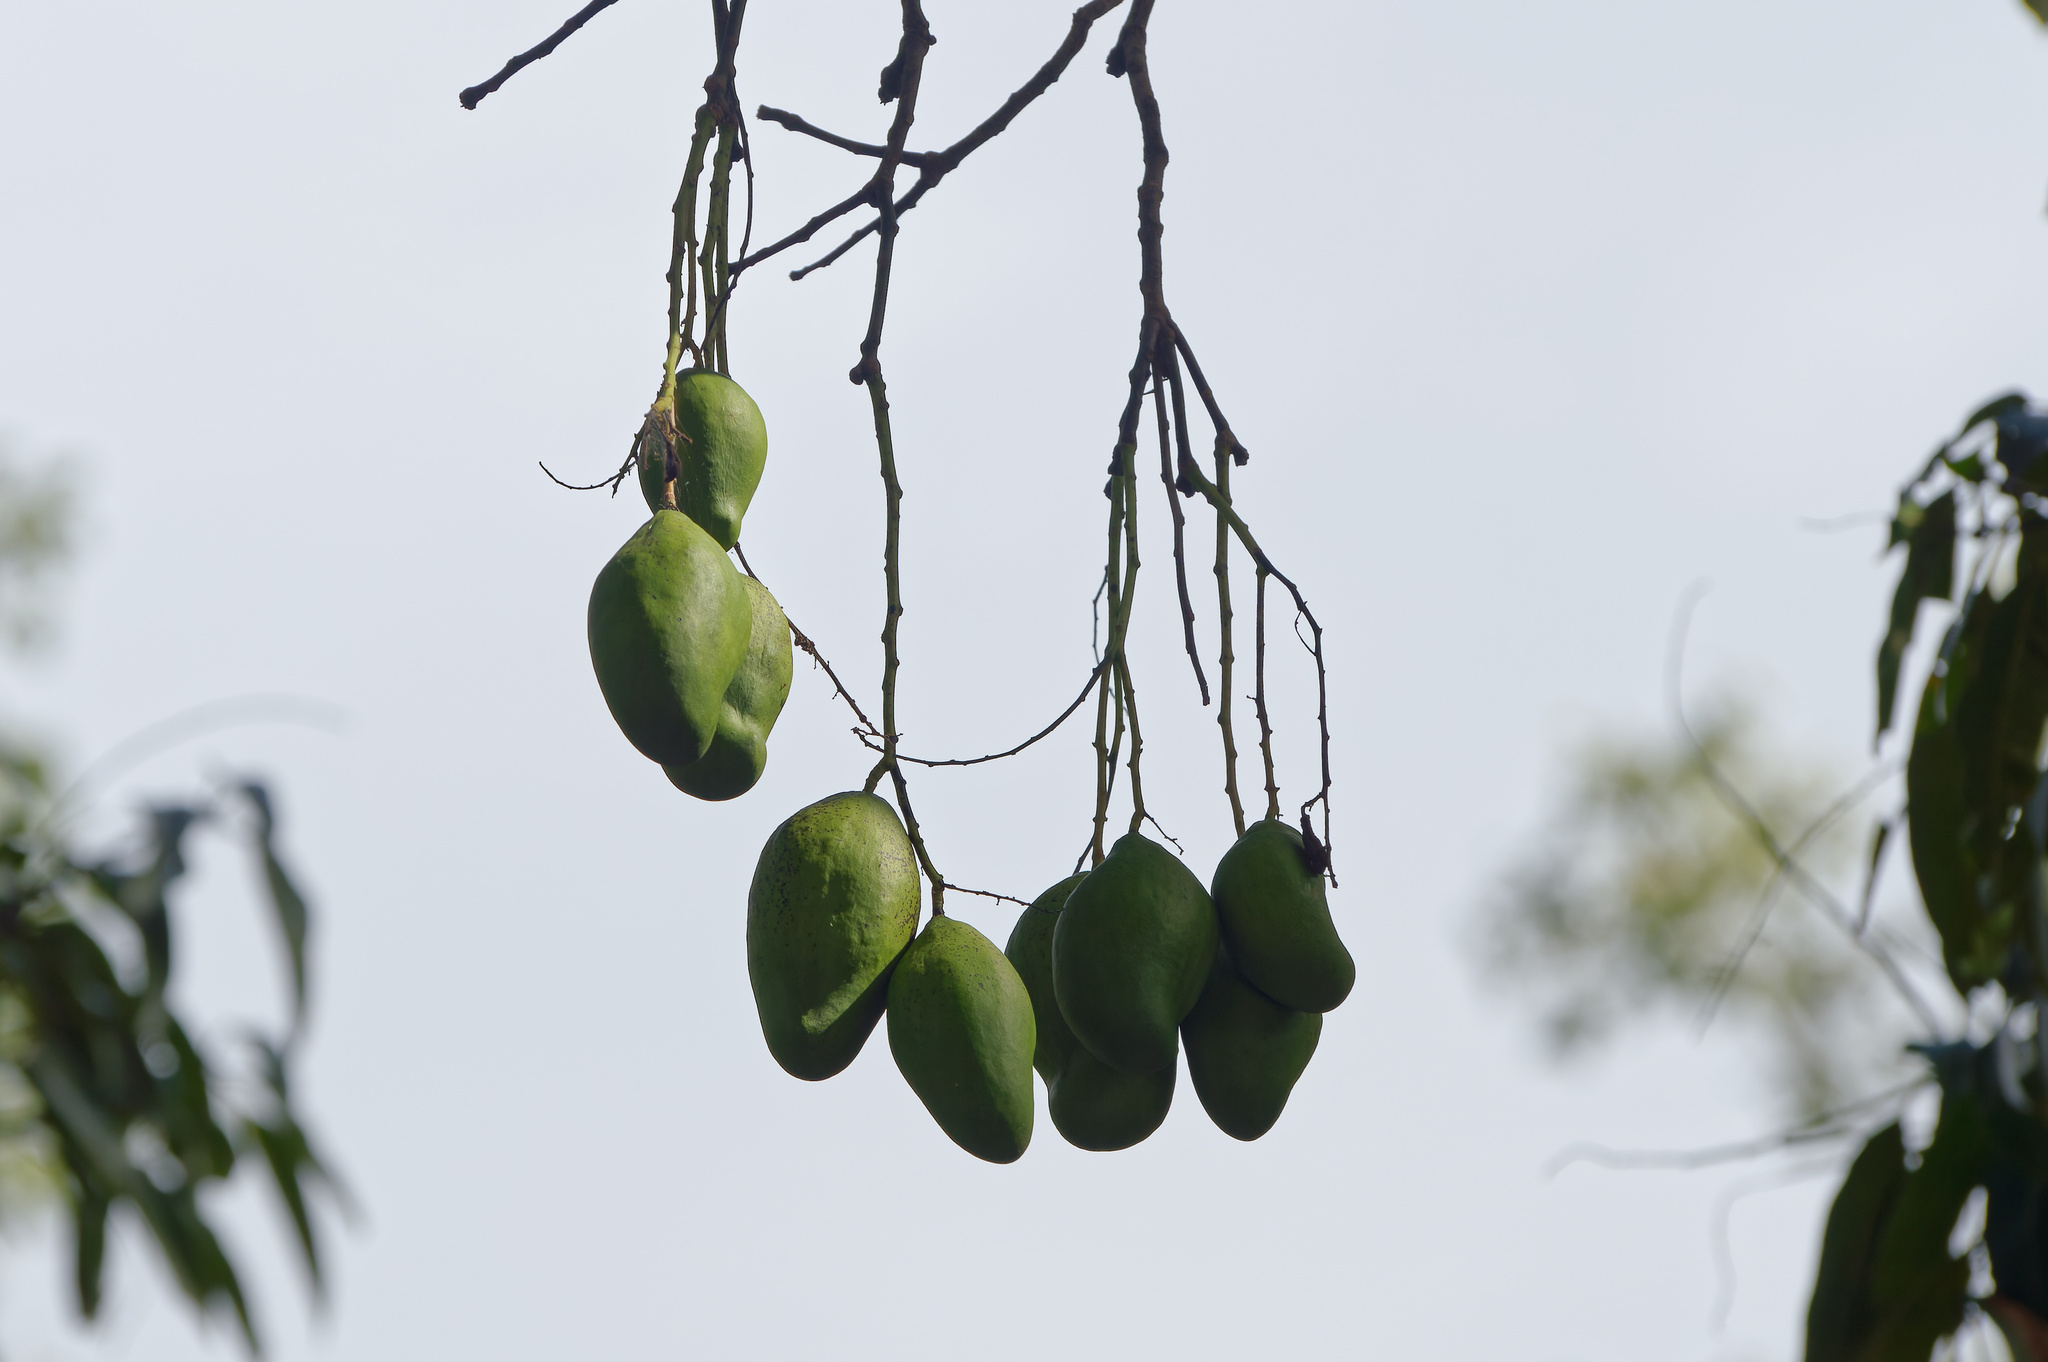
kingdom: Plantae
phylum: Tracheophyta
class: Magnoliopsida
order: Sapindales
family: Anacardiaceae
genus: Mangifera
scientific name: Mangifera indica
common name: Mango
